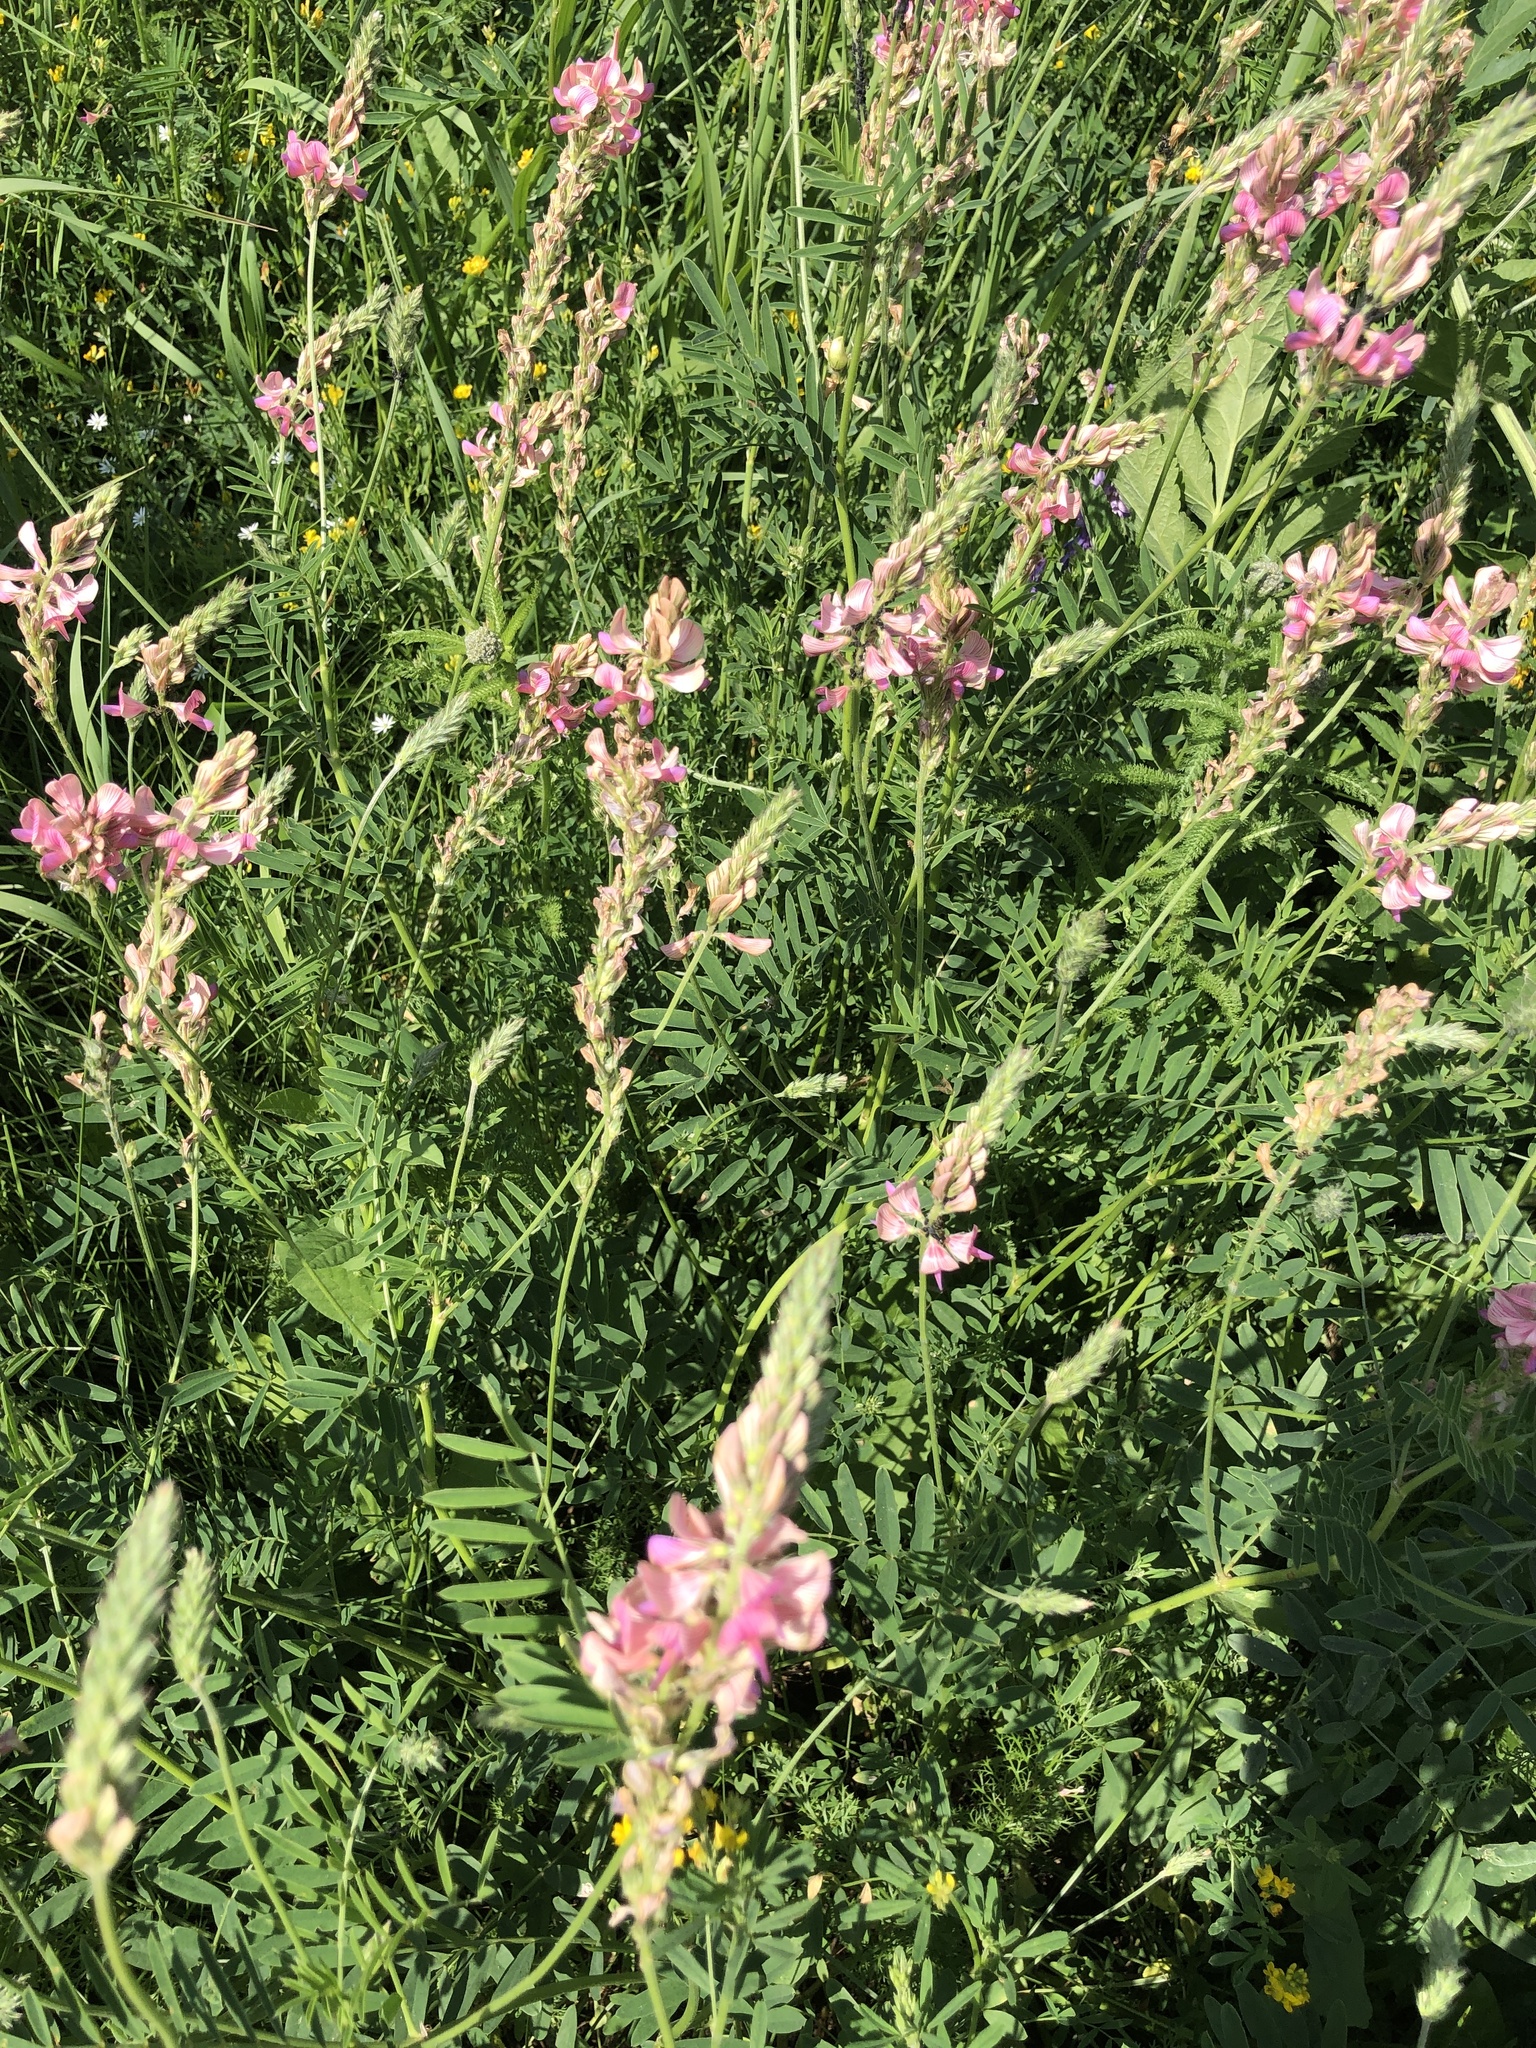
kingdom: Plantae
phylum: Tracheophyta
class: Magnoliopsida
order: Fabales
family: Fabaceae
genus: Onobrychis
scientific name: Onobrychis arenaria
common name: Sand esparcet
